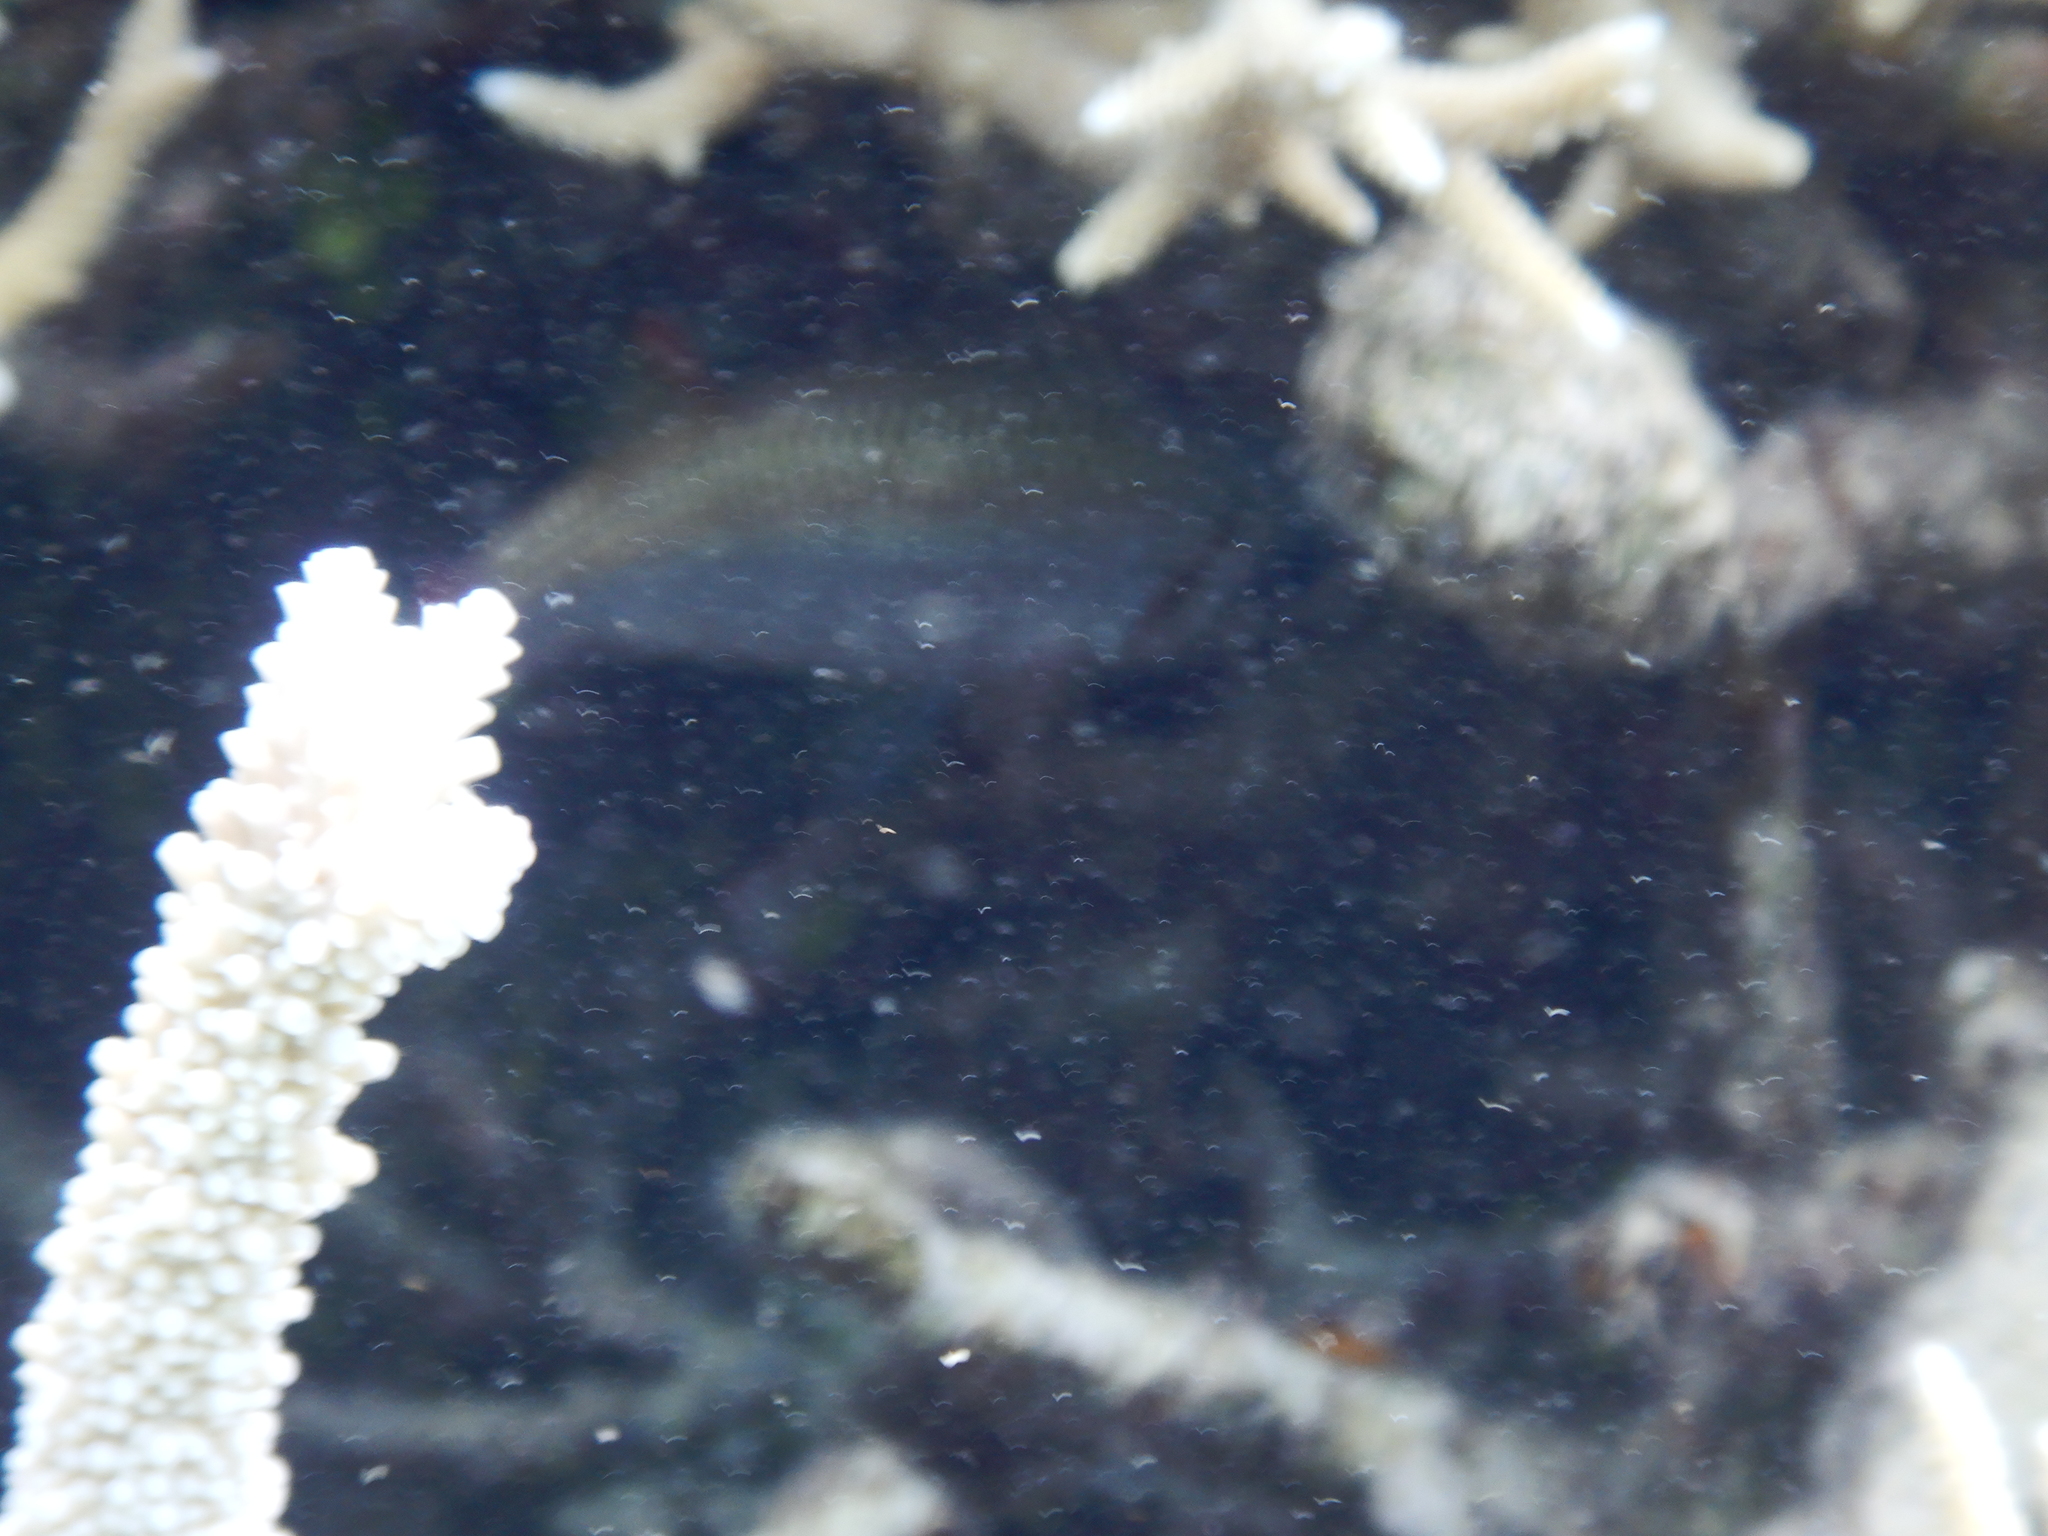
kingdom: Animalia
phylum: Chordata
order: Beryciformes
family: Holocentridae
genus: Neoniphon
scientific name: Neoniphon argenteus
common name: Clearfin squirrelfish
